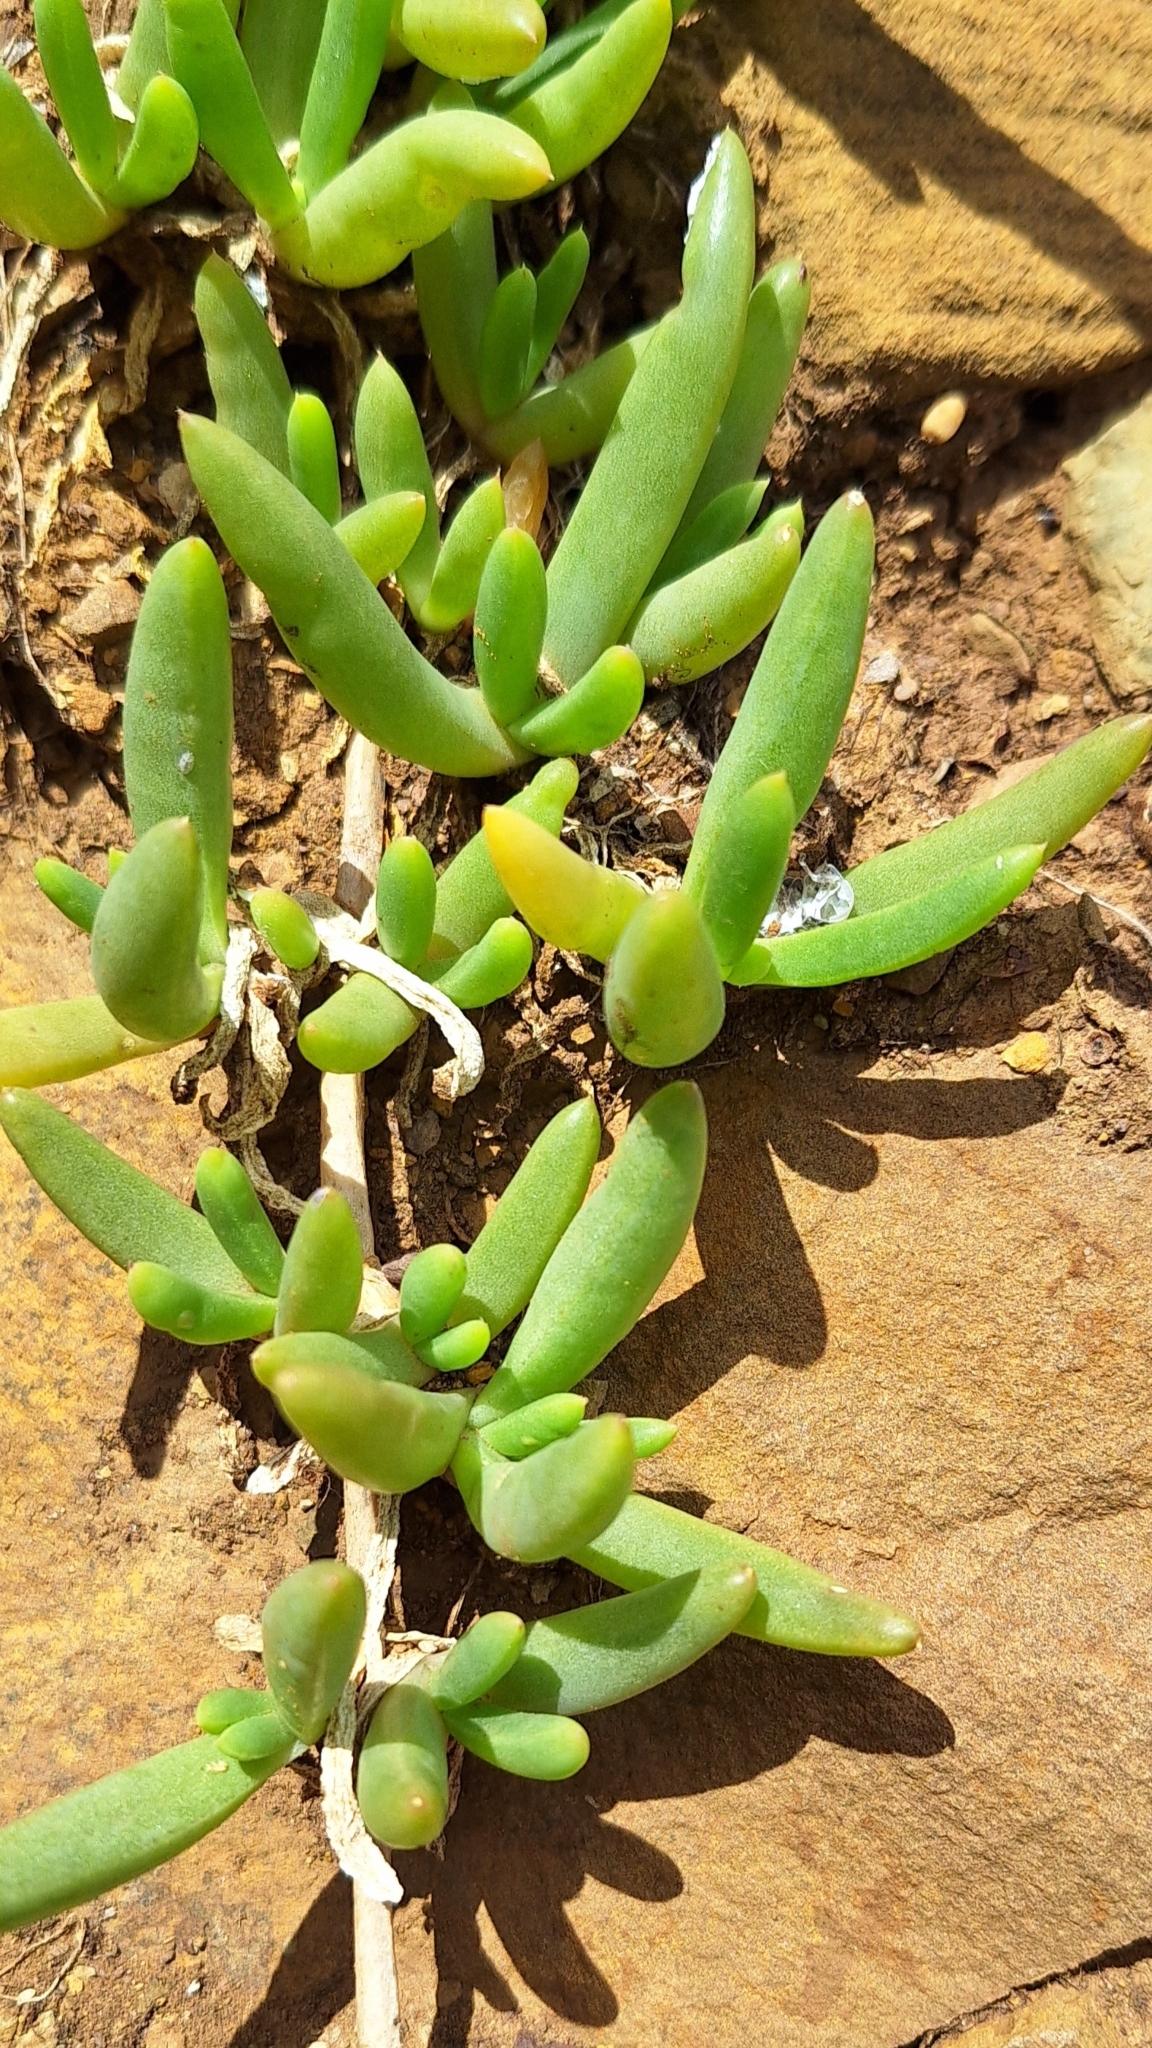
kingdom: Plantae
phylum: Tracheophyta
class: Magnoliopsida
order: Caryophyllales
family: Aizoaceae
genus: Disphyma
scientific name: Disphyma crassifolium
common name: Purple dewplant
